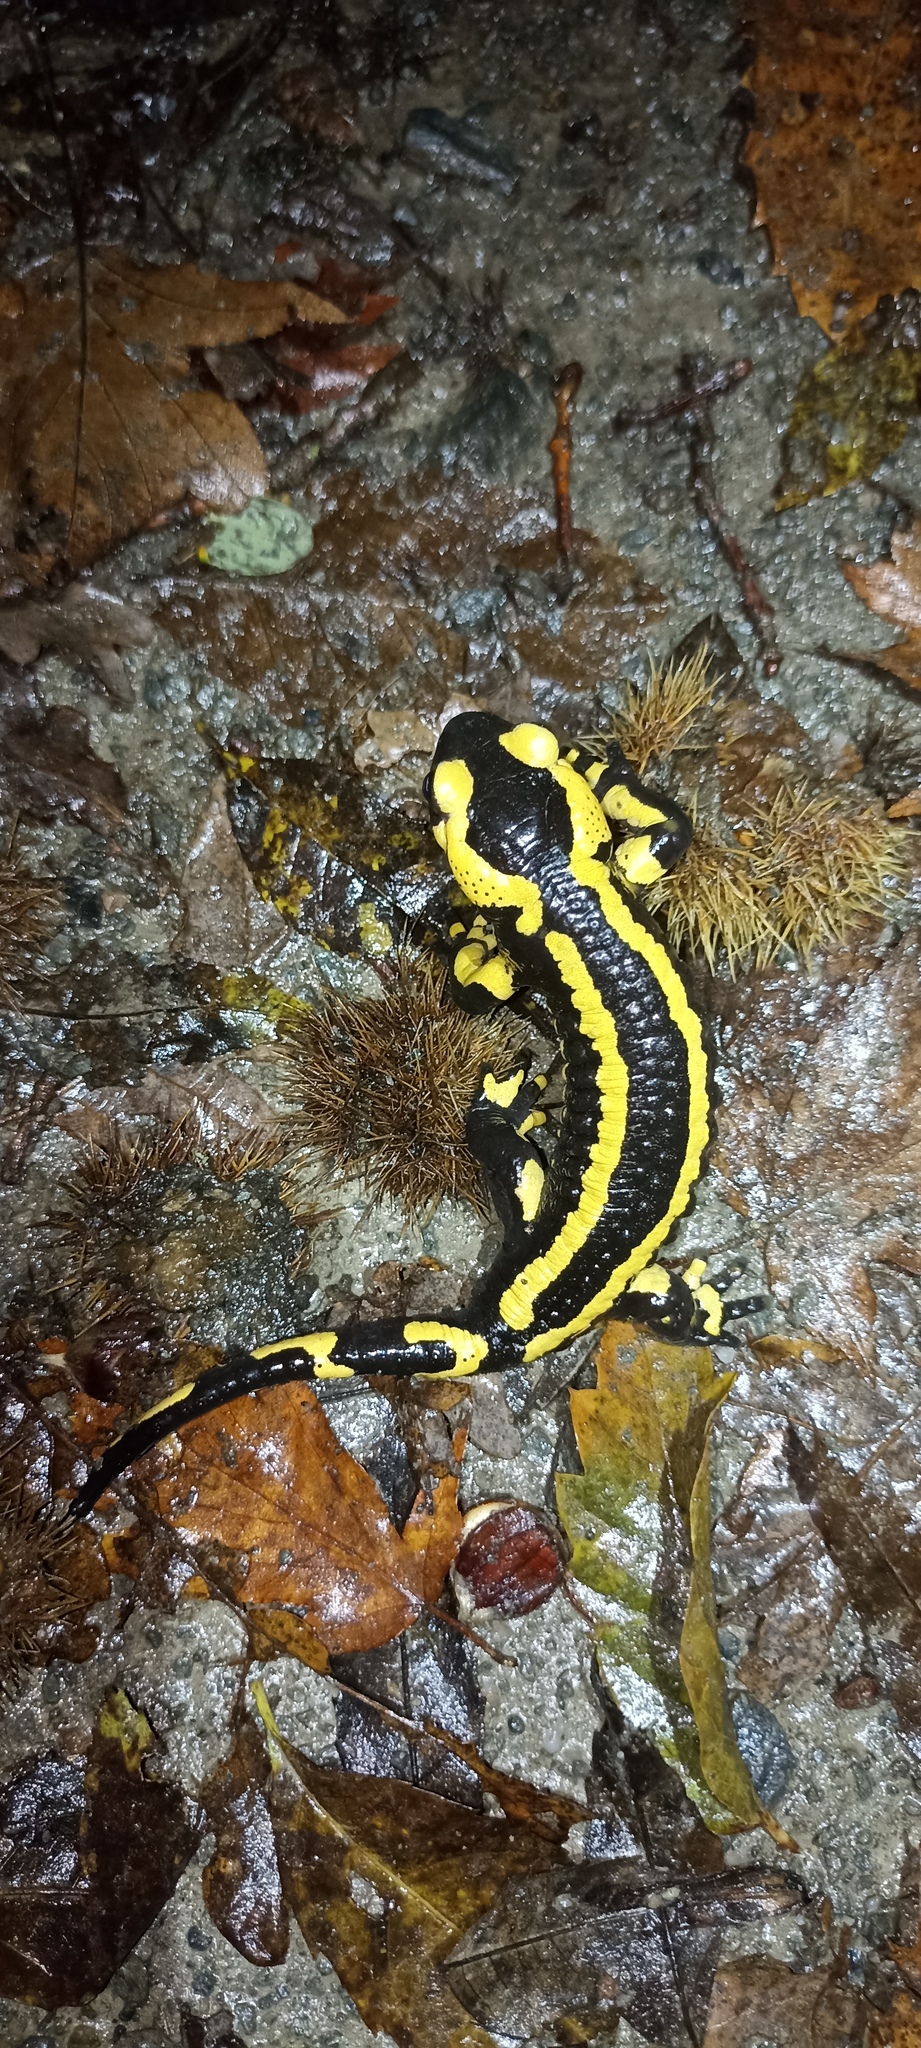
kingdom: Animalia
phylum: Chordata
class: Amphibia
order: Caudata
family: Salamandridae
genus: Salamandra
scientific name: Salamandra salamandra
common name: Fire salamander
